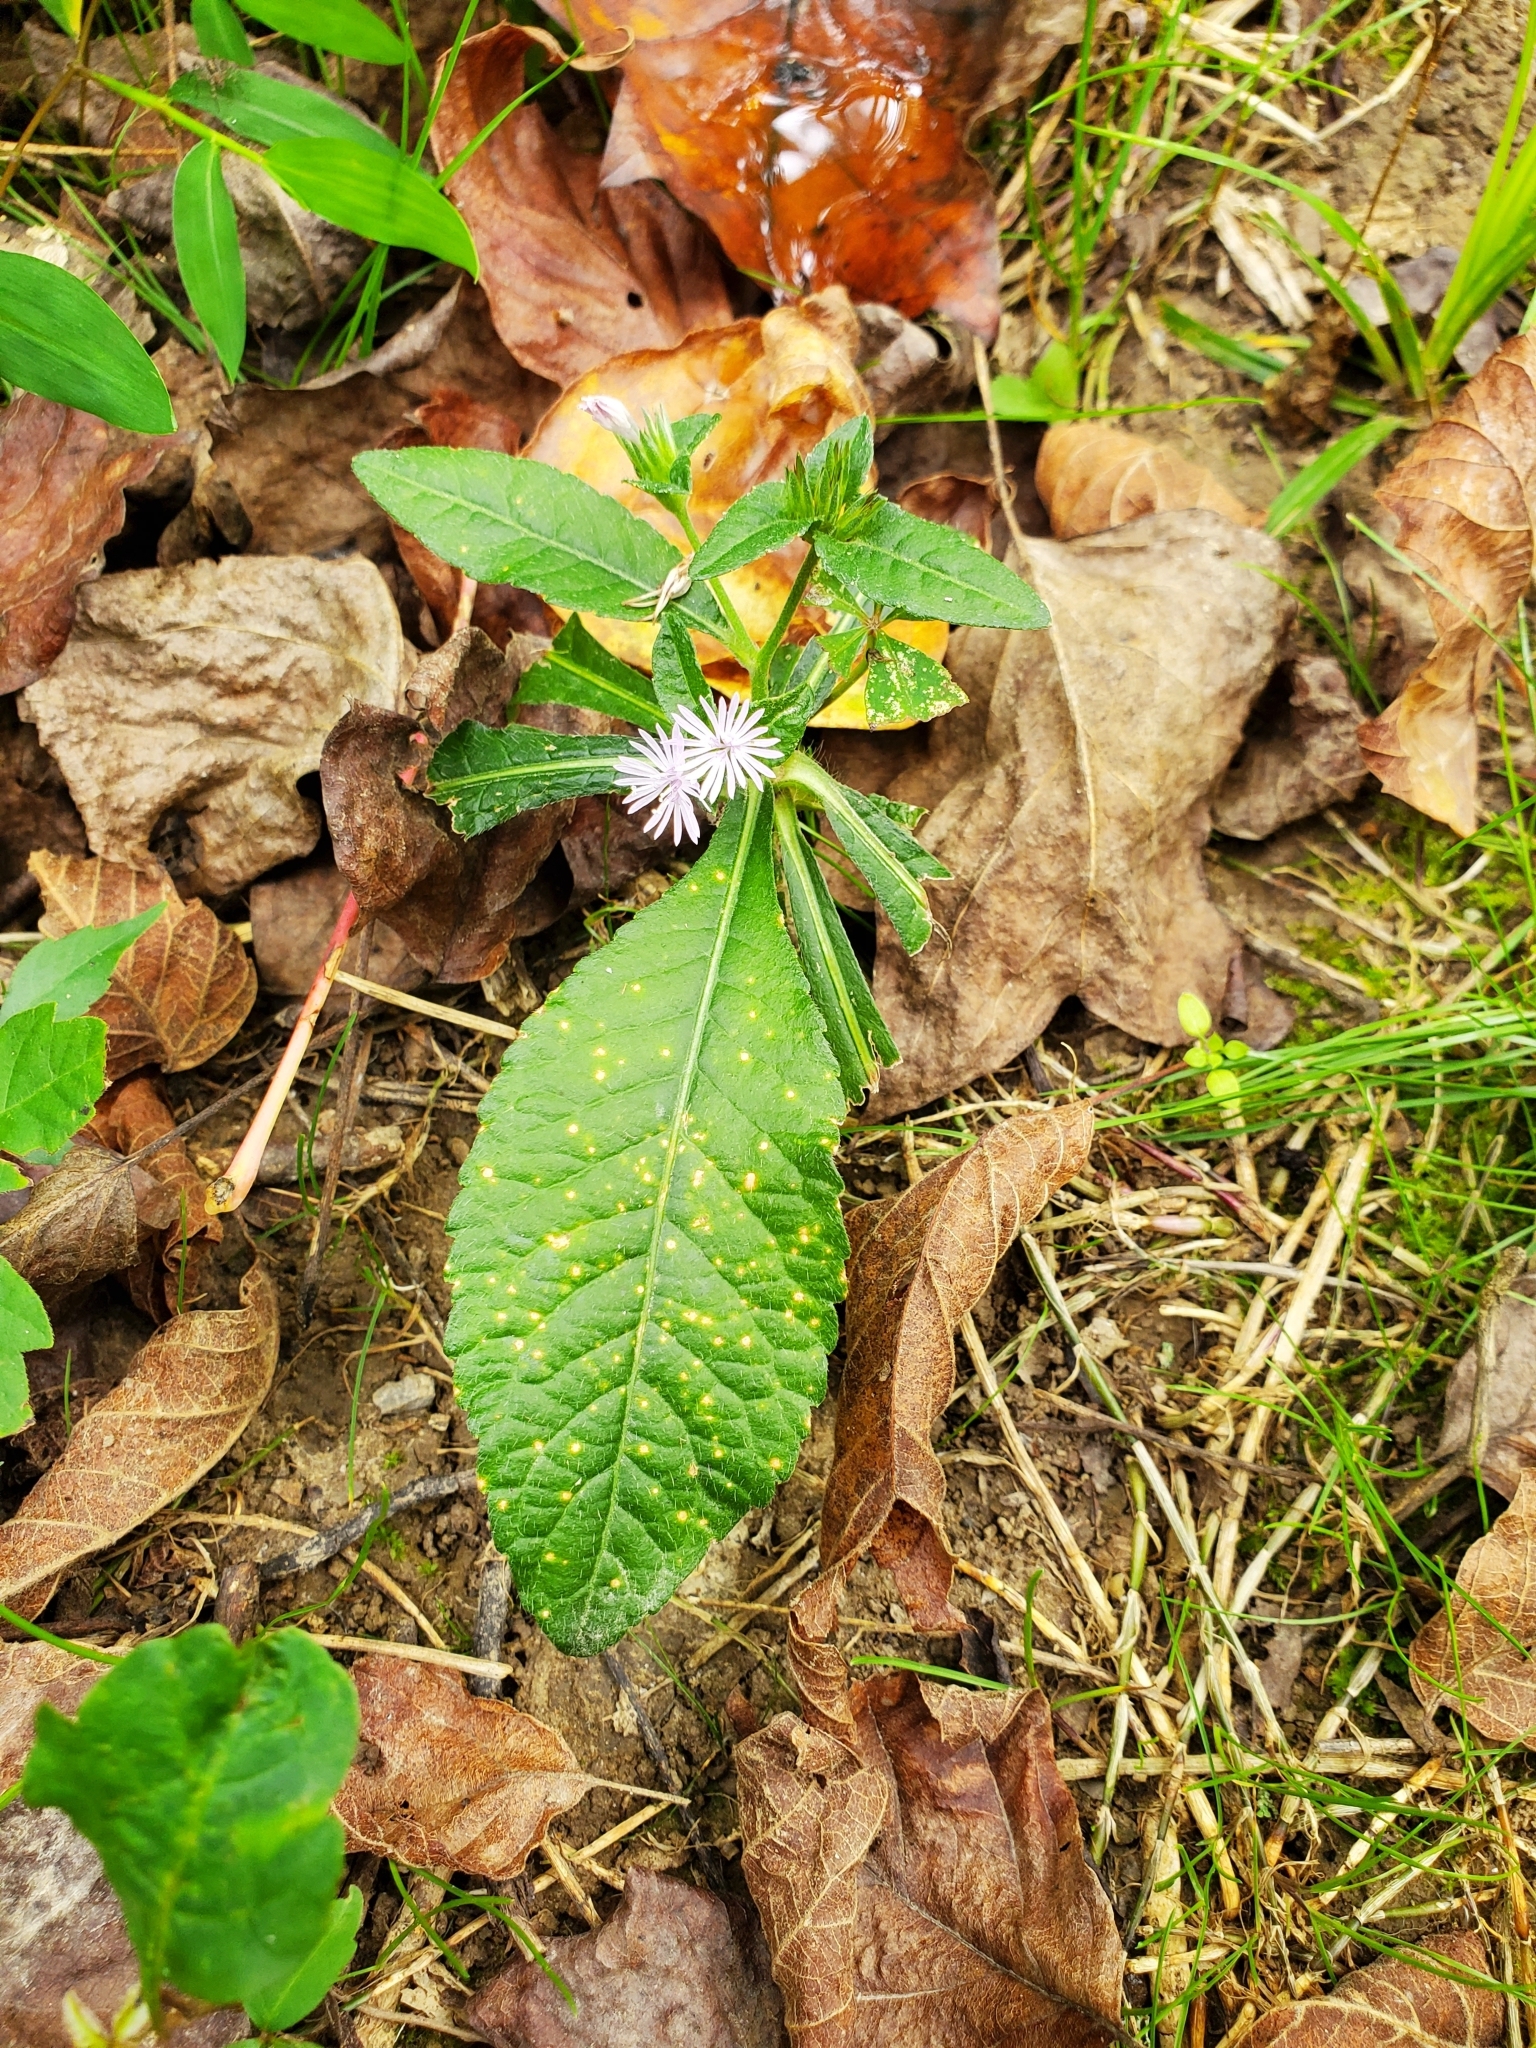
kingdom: Plantae
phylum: Tracheophyta
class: Magnoliopsida
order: Asterales
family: Asteraceae
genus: Elephantopus
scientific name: Elephantopus carolinianus
